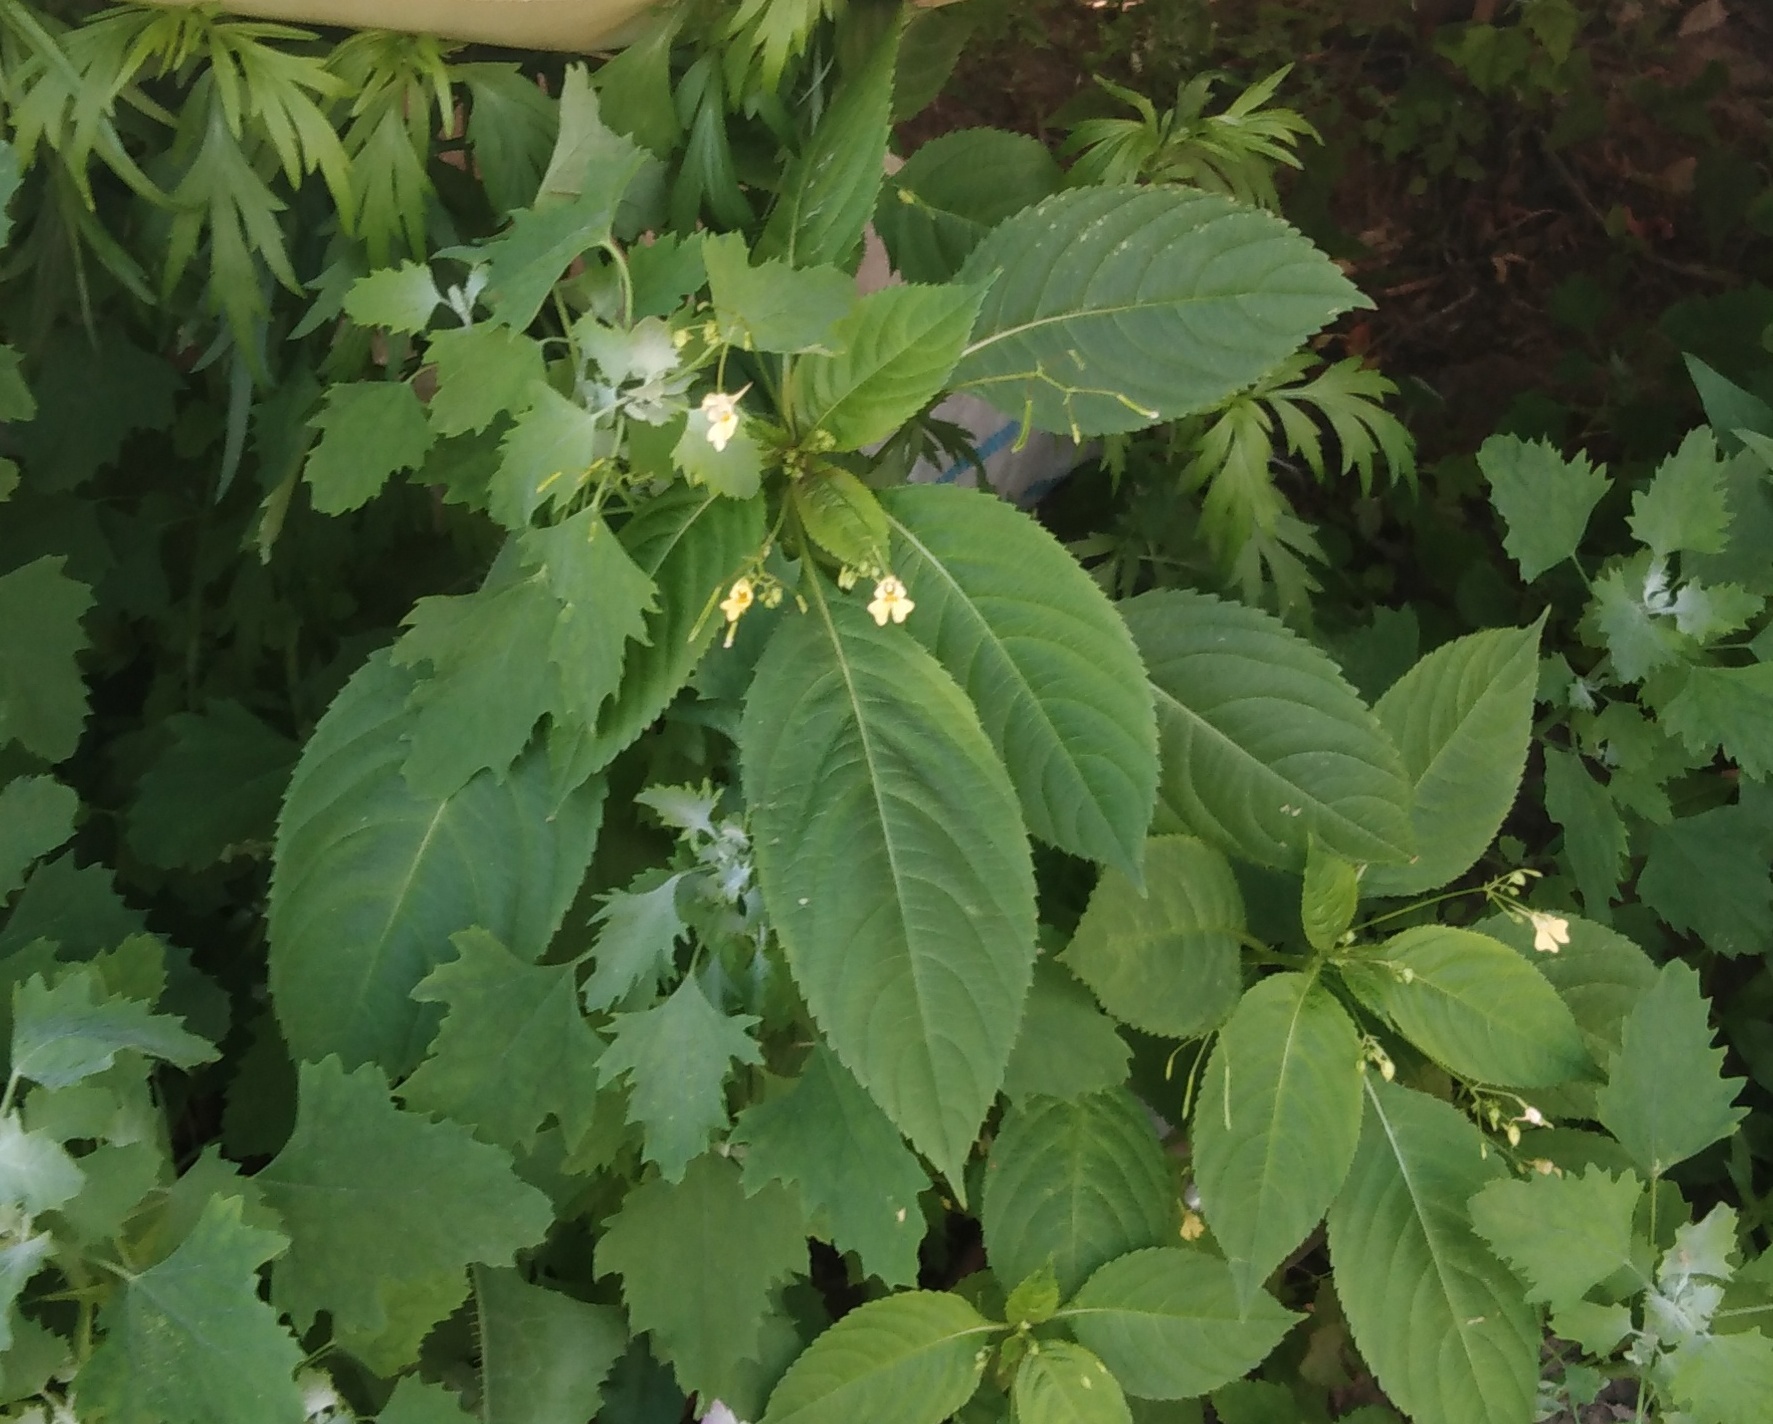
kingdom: Plantae
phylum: Tracheophyta
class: Magnoliopsida
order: Ericales
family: Balsaminaceae
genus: Impatiens
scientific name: Impatiens parviflora
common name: Small balsam
